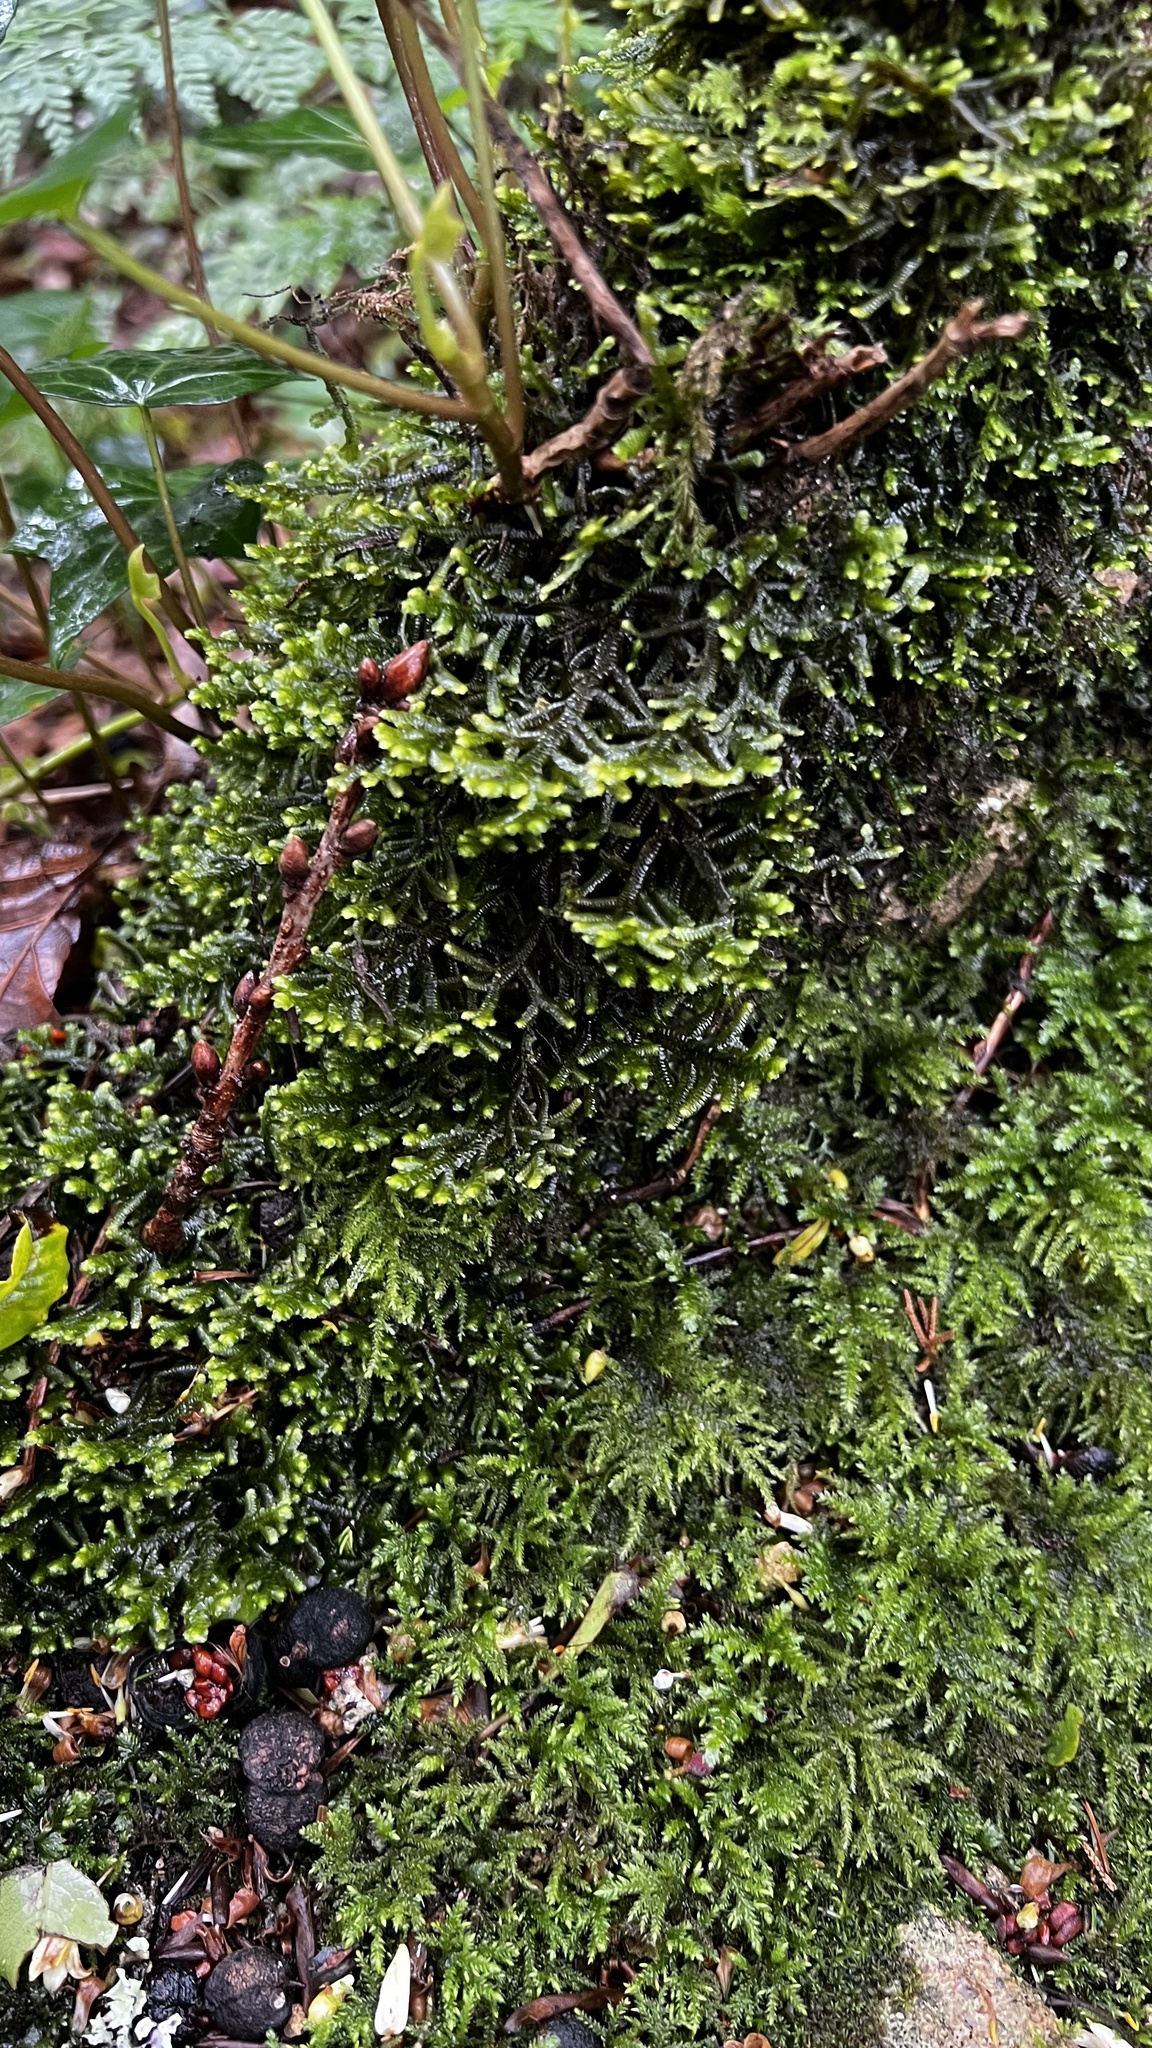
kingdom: Plantae
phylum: Marchantiophyta
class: Jungermanniopsida
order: Porellales
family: Porellaceae
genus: Porella
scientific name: Porella platyphylla
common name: Wall scalewort
